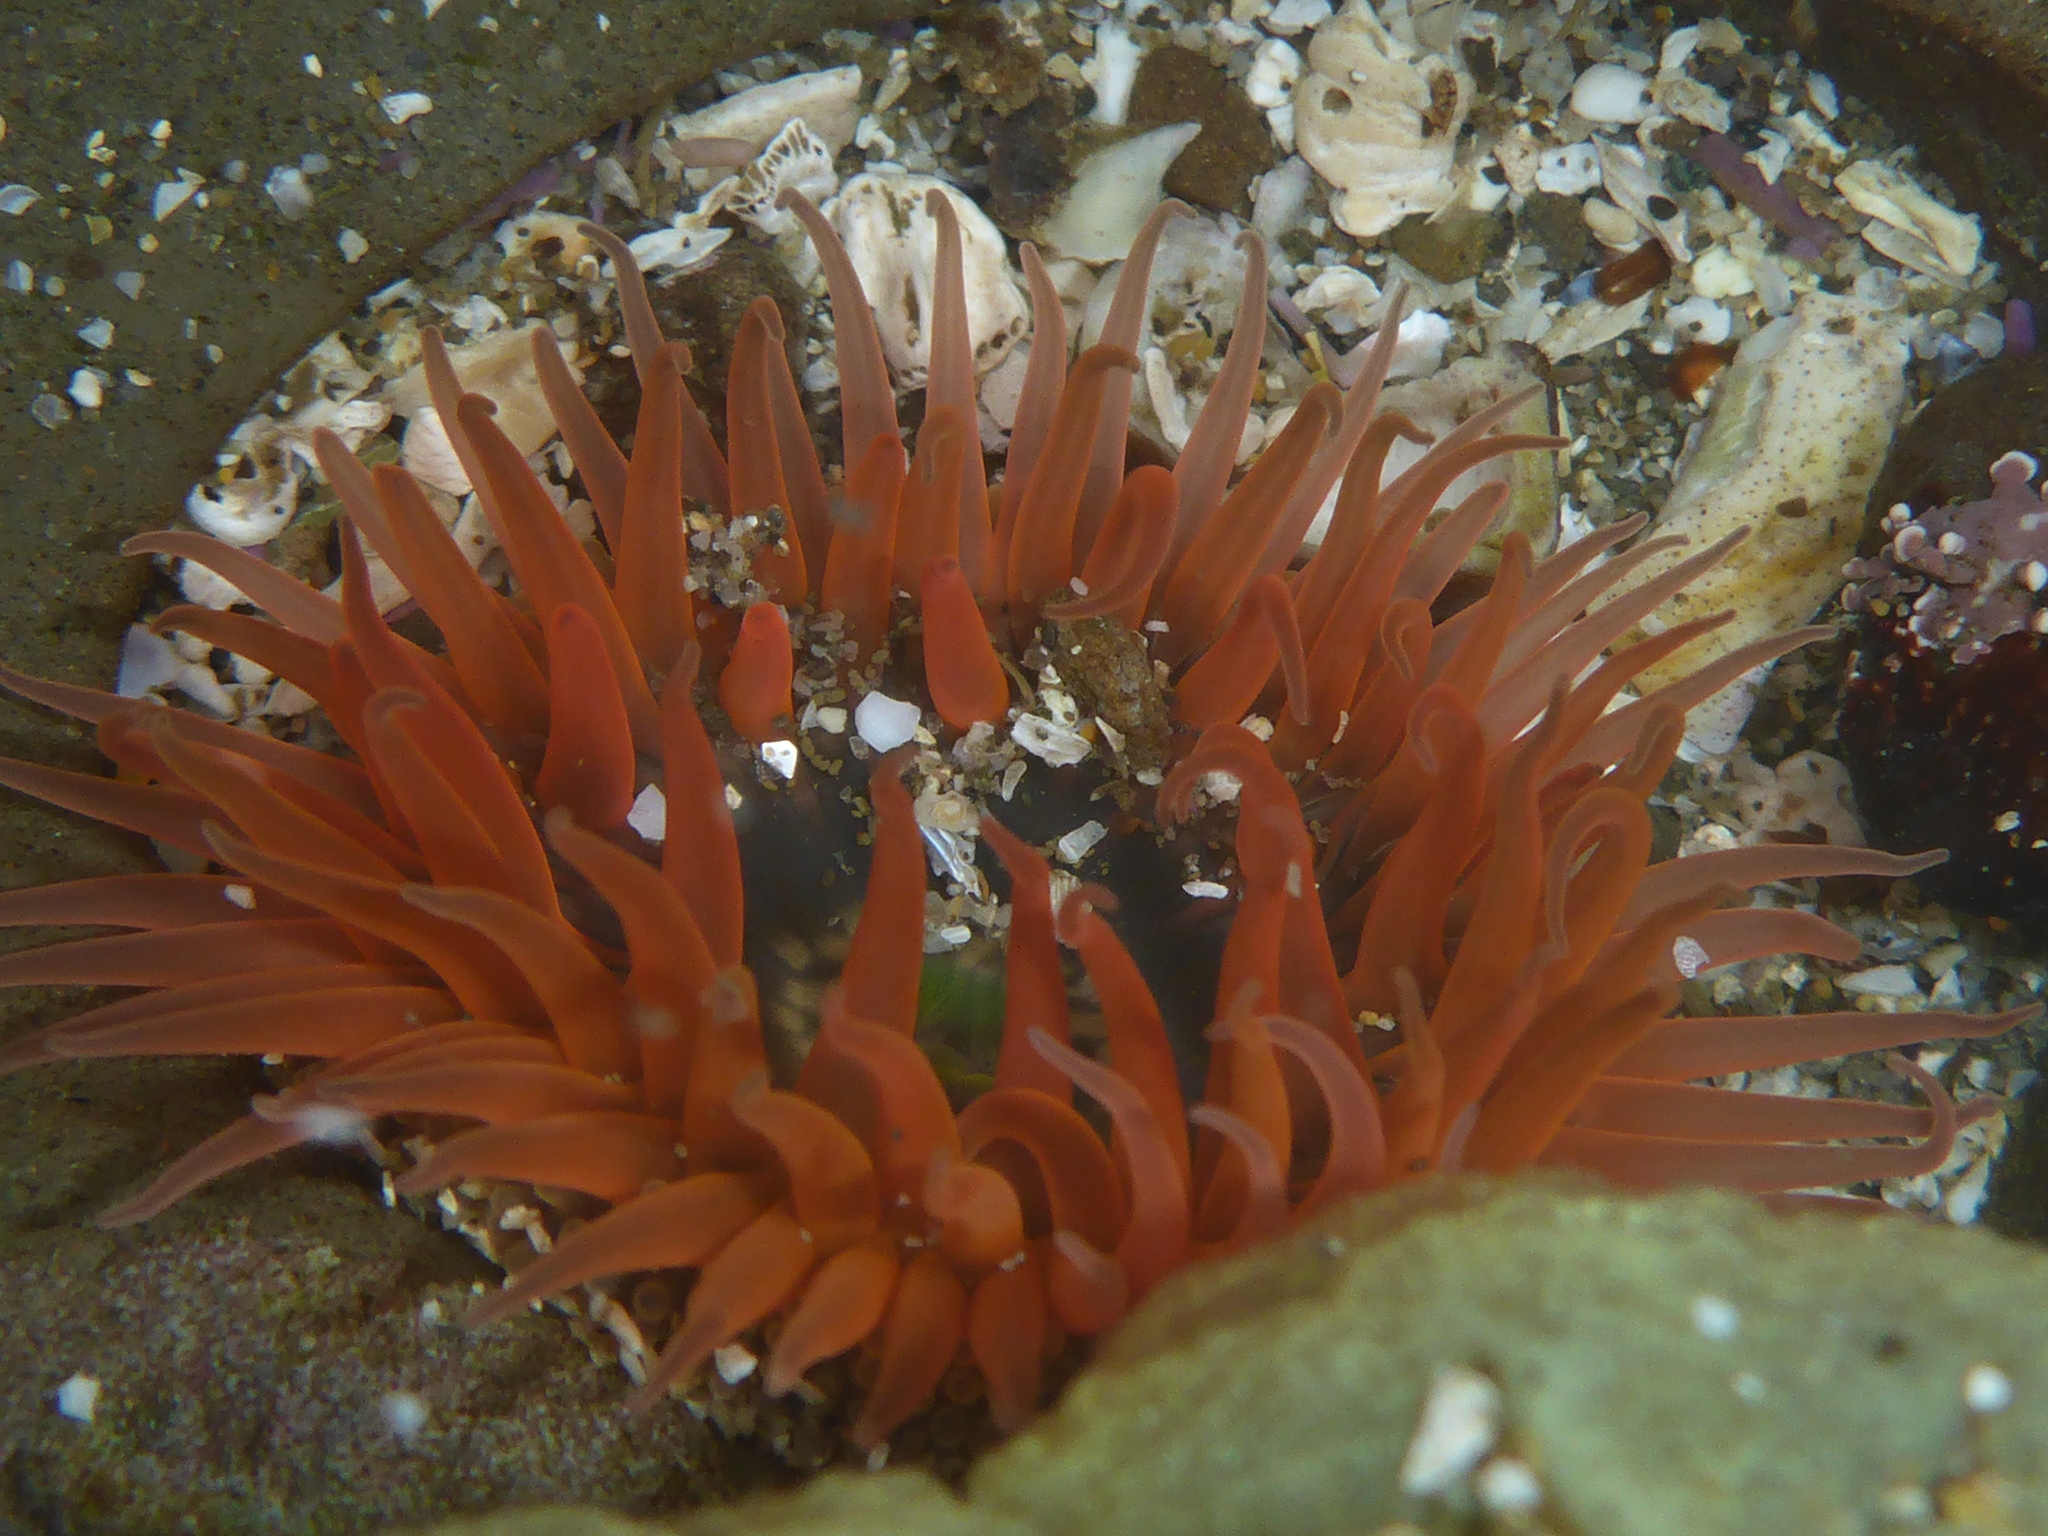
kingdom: Animalia
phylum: Cnidaria
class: Anthozoa
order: Actiniaria
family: Actiniidae
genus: Anthopleura
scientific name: Anthopleura artemisia
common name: Buried sea anemone
